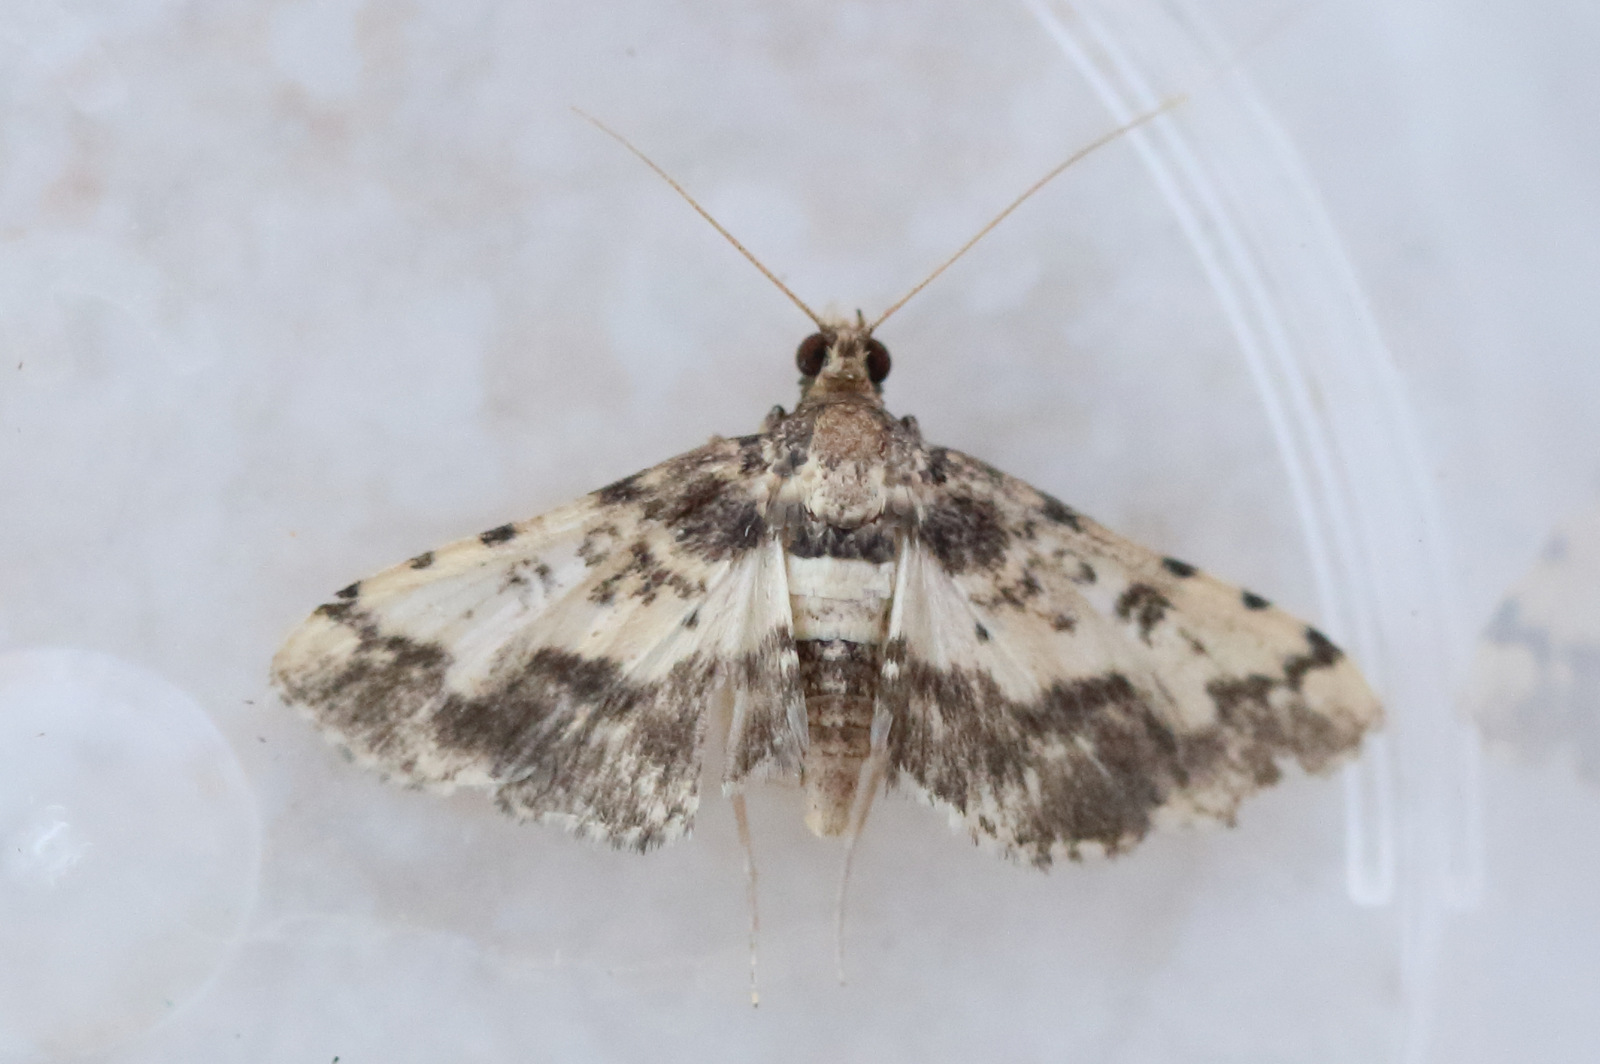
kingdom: Animalia
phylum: Arthropoda
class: Insecta
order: Lepidoptera
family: Crambidae
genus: Nacoleia
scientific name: Nacoleia amphicedalis
